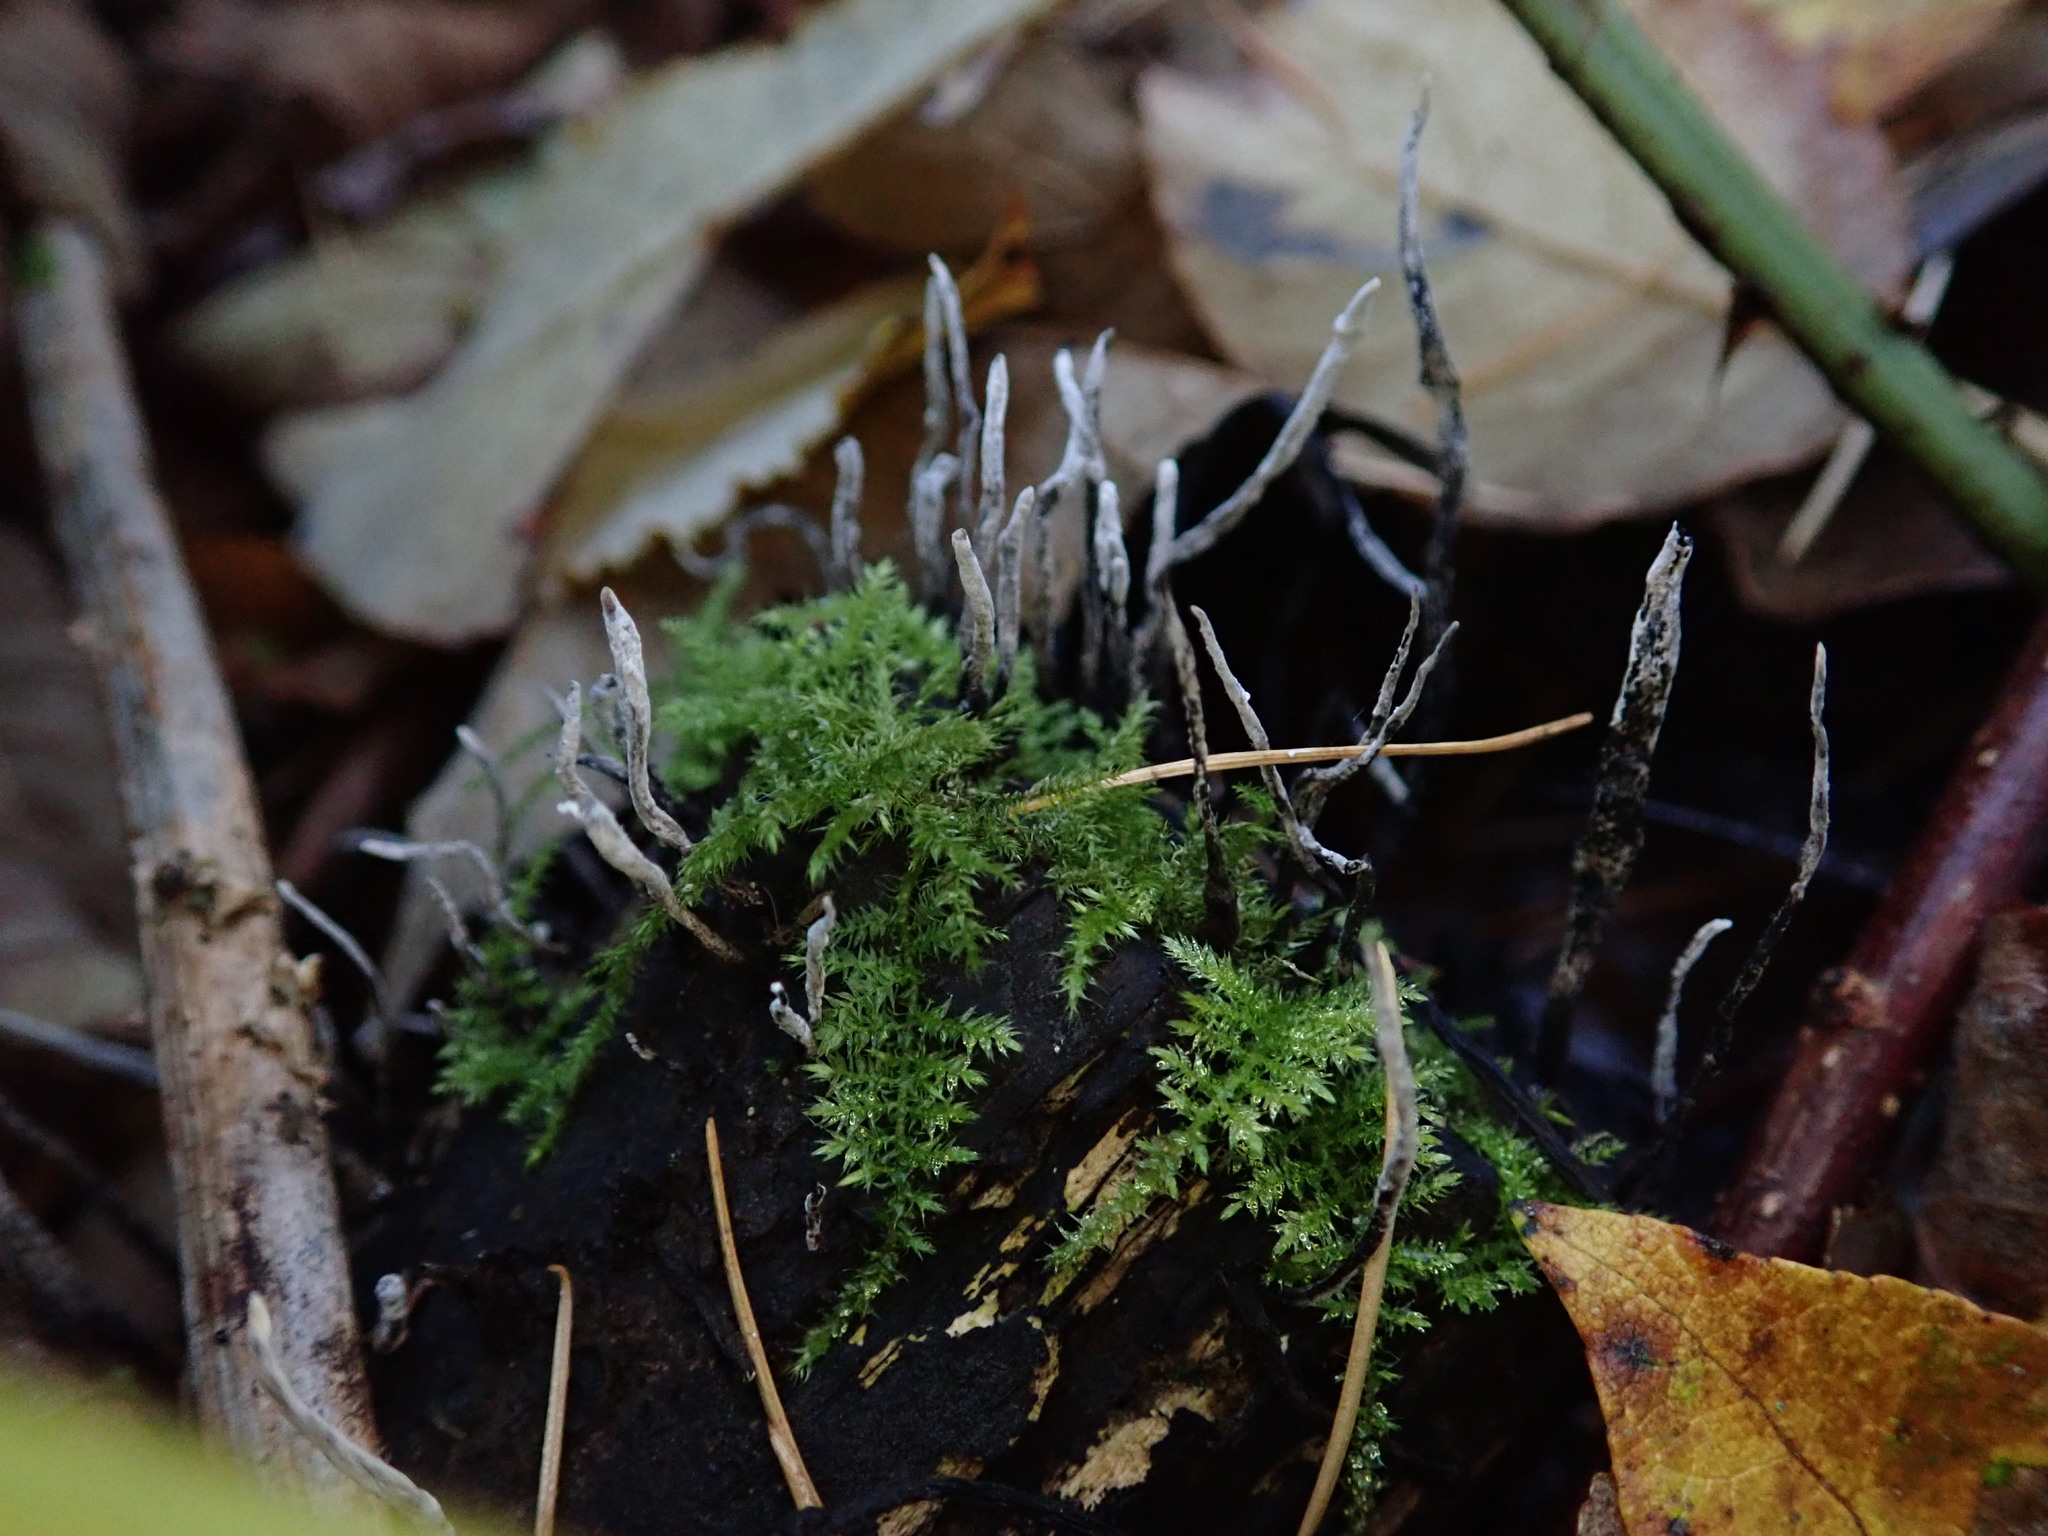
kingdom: Fungi
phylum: Ascomycota
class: Sordariomycetes
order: Xylariales
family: Xylariaceae
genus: Xylaria
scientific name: Xylaria hypoxylon
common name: Candle-snuff fungus
